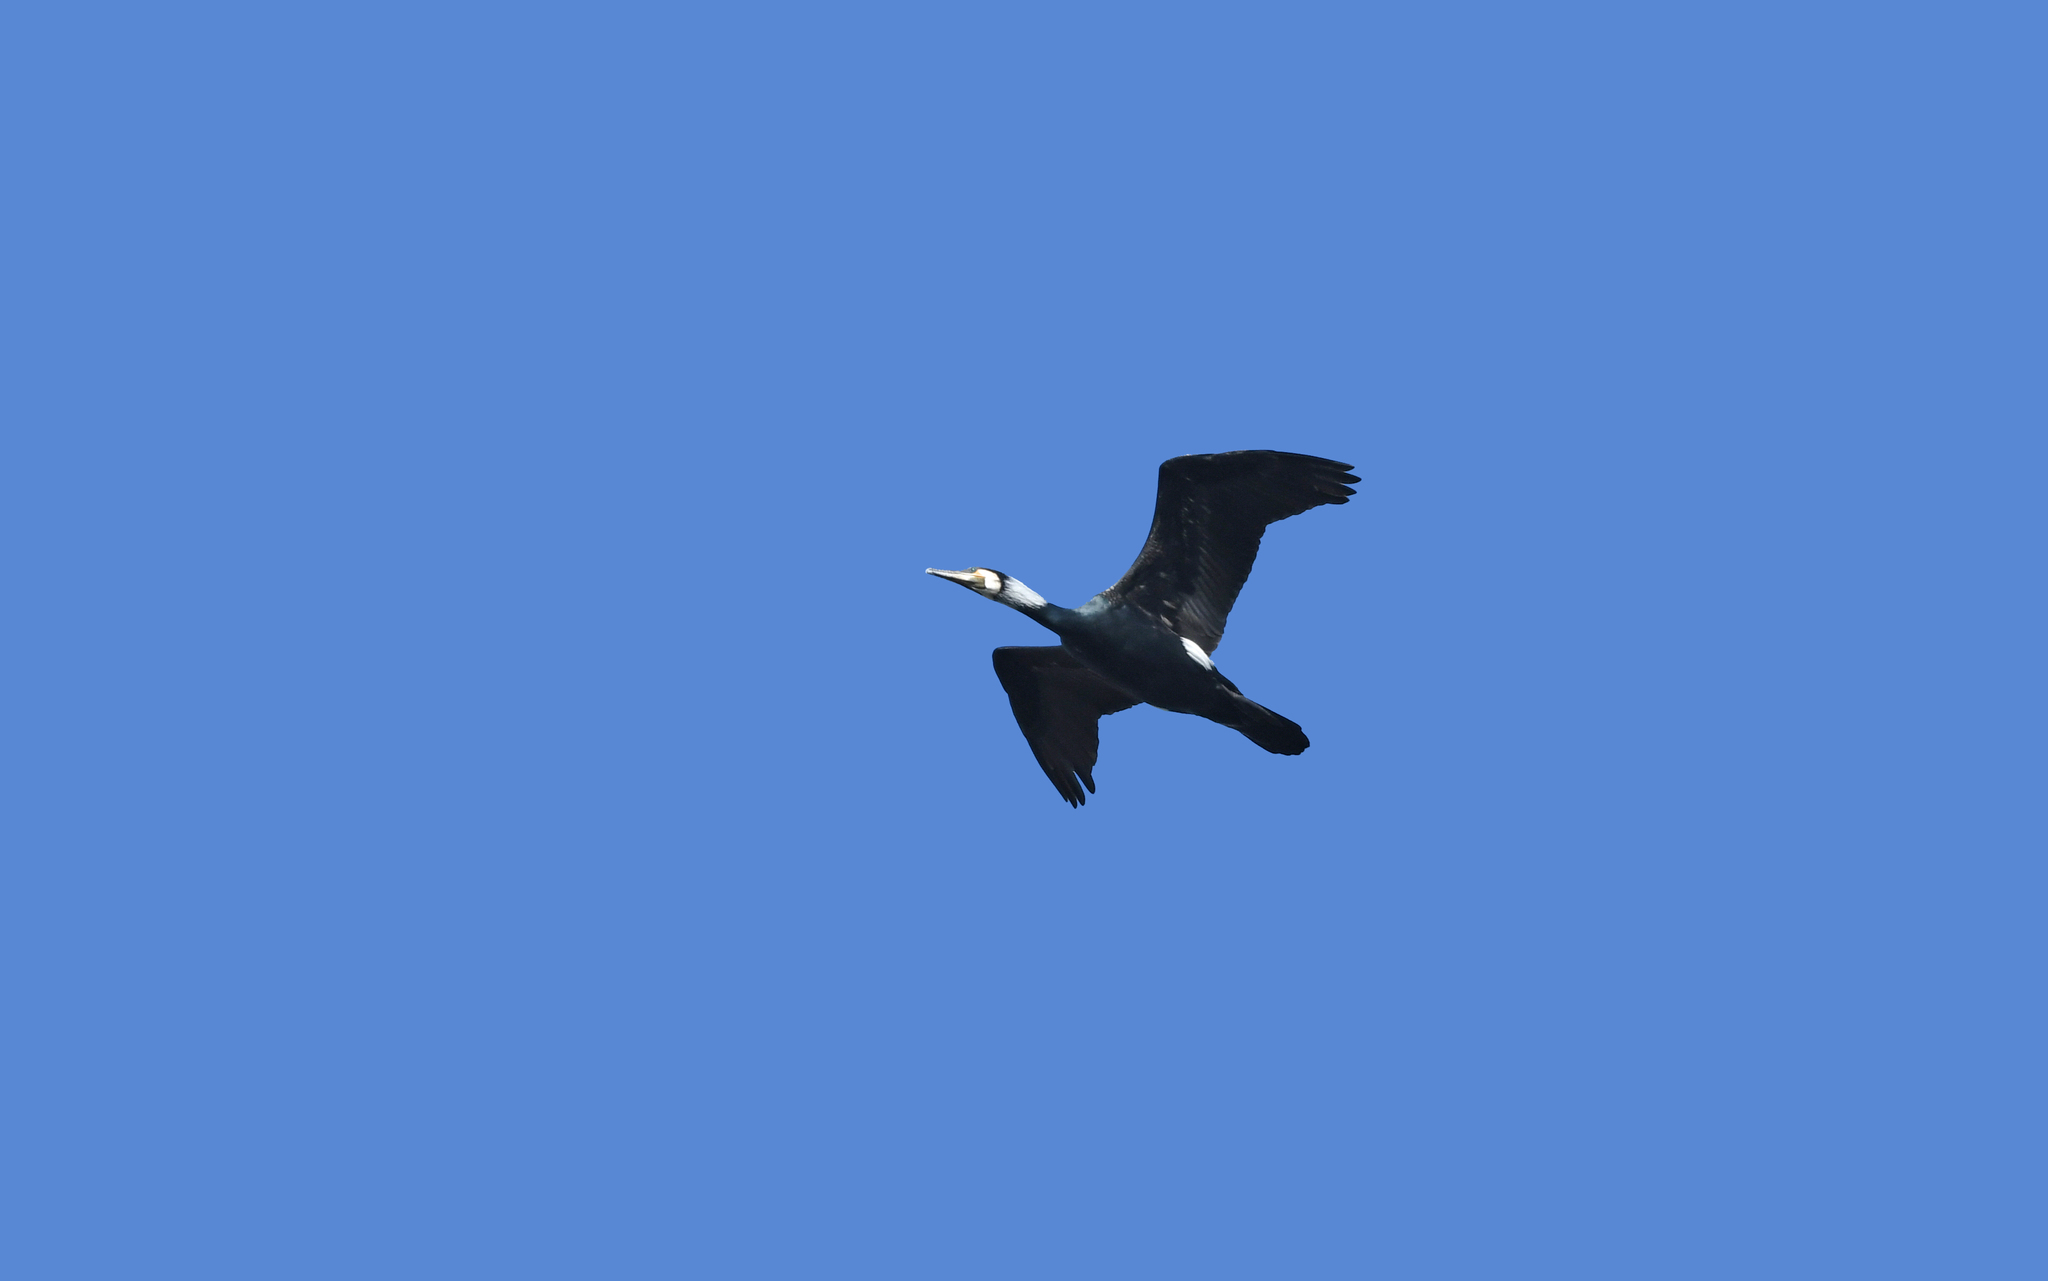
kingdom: Animalia
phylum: Chordata
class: Aves
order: Suliformes
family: Phalacrocoracidae
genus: Phalacrocorax
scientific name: Phalacrocorax carbo
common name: Great cormorant
